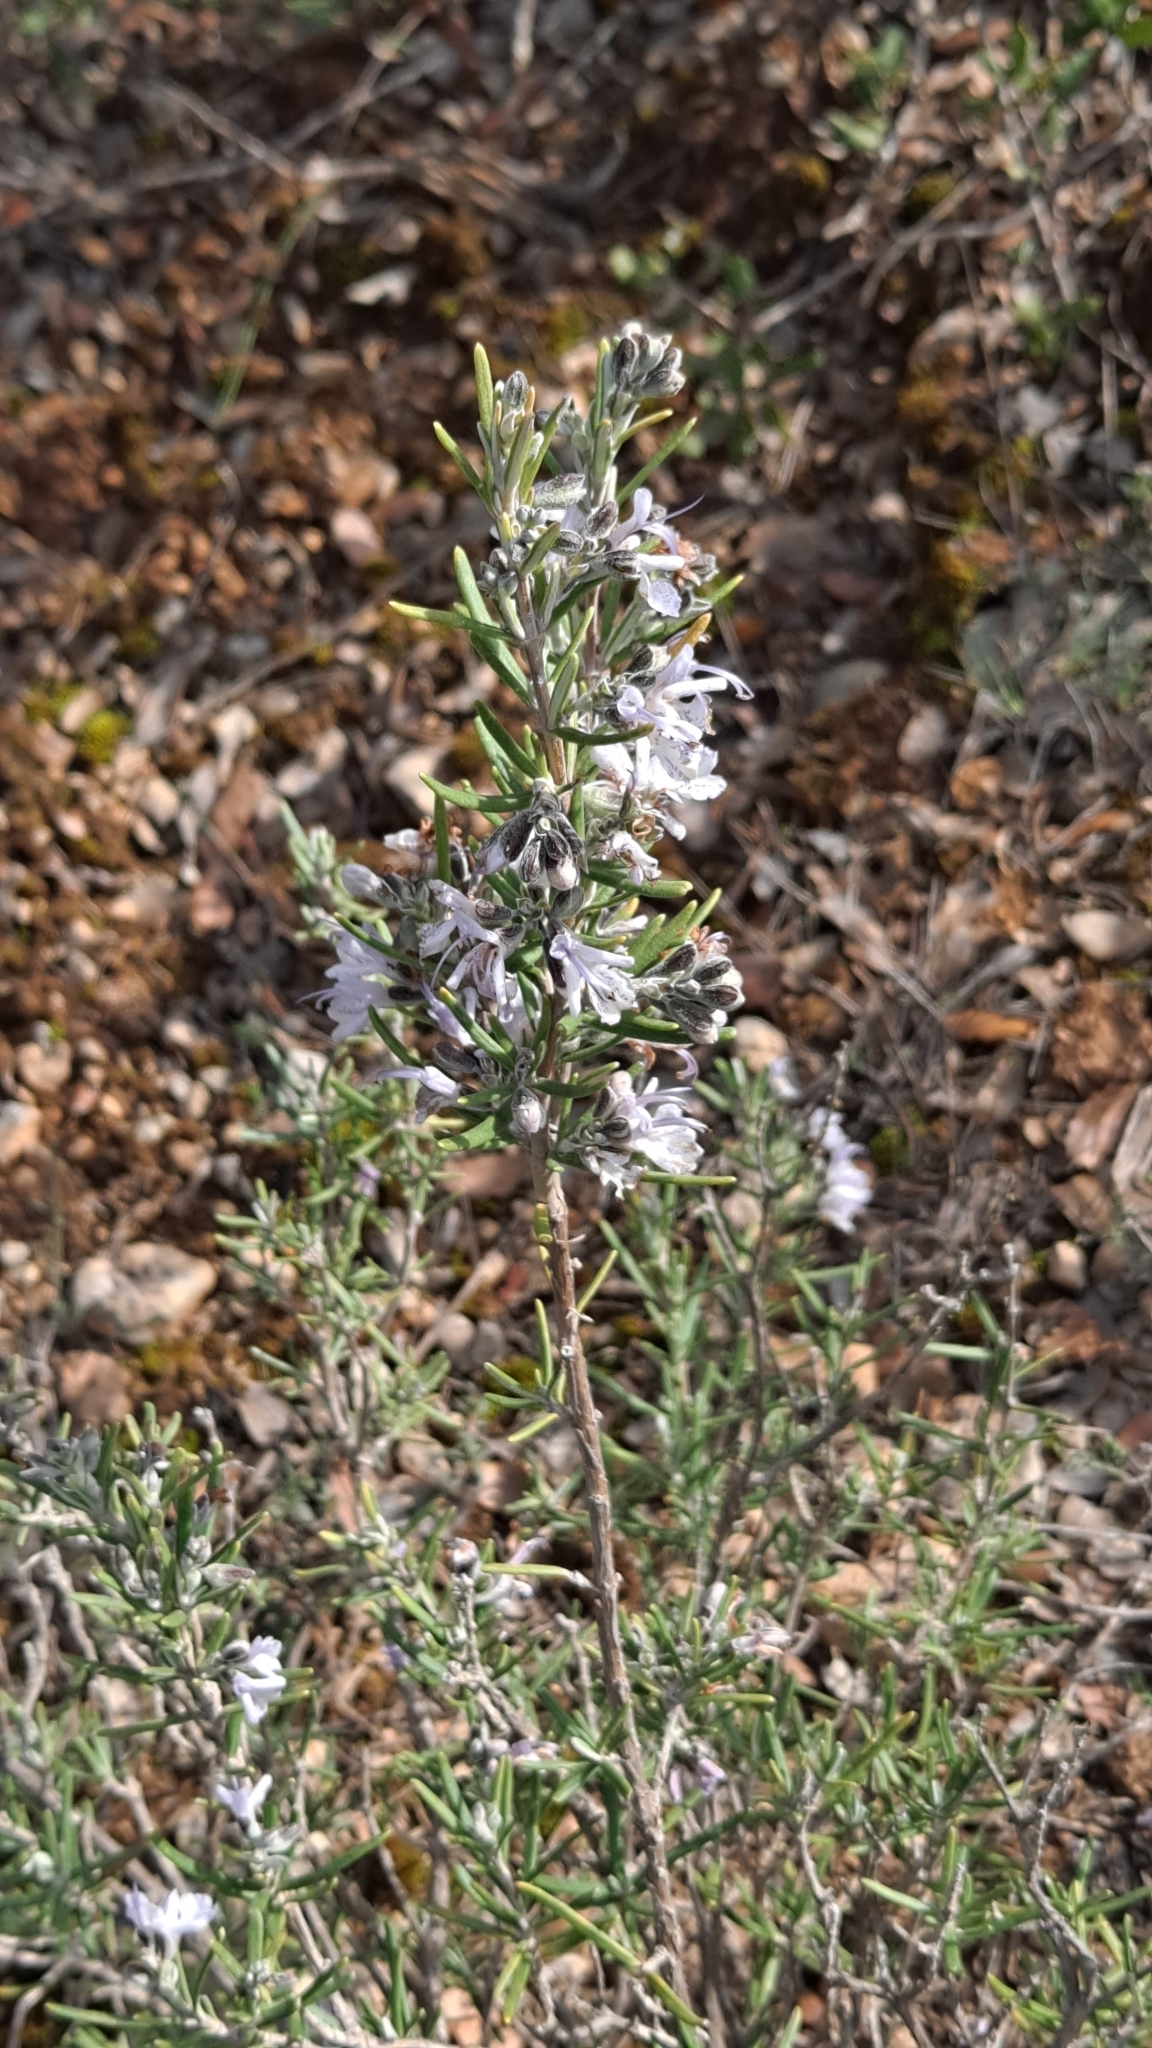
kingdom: Plantae
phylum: Tracheophyta
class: Magnoliopsida
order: Lamiales
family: Lamiaceae
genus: Salvia
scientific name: Salvia rosmarinus
